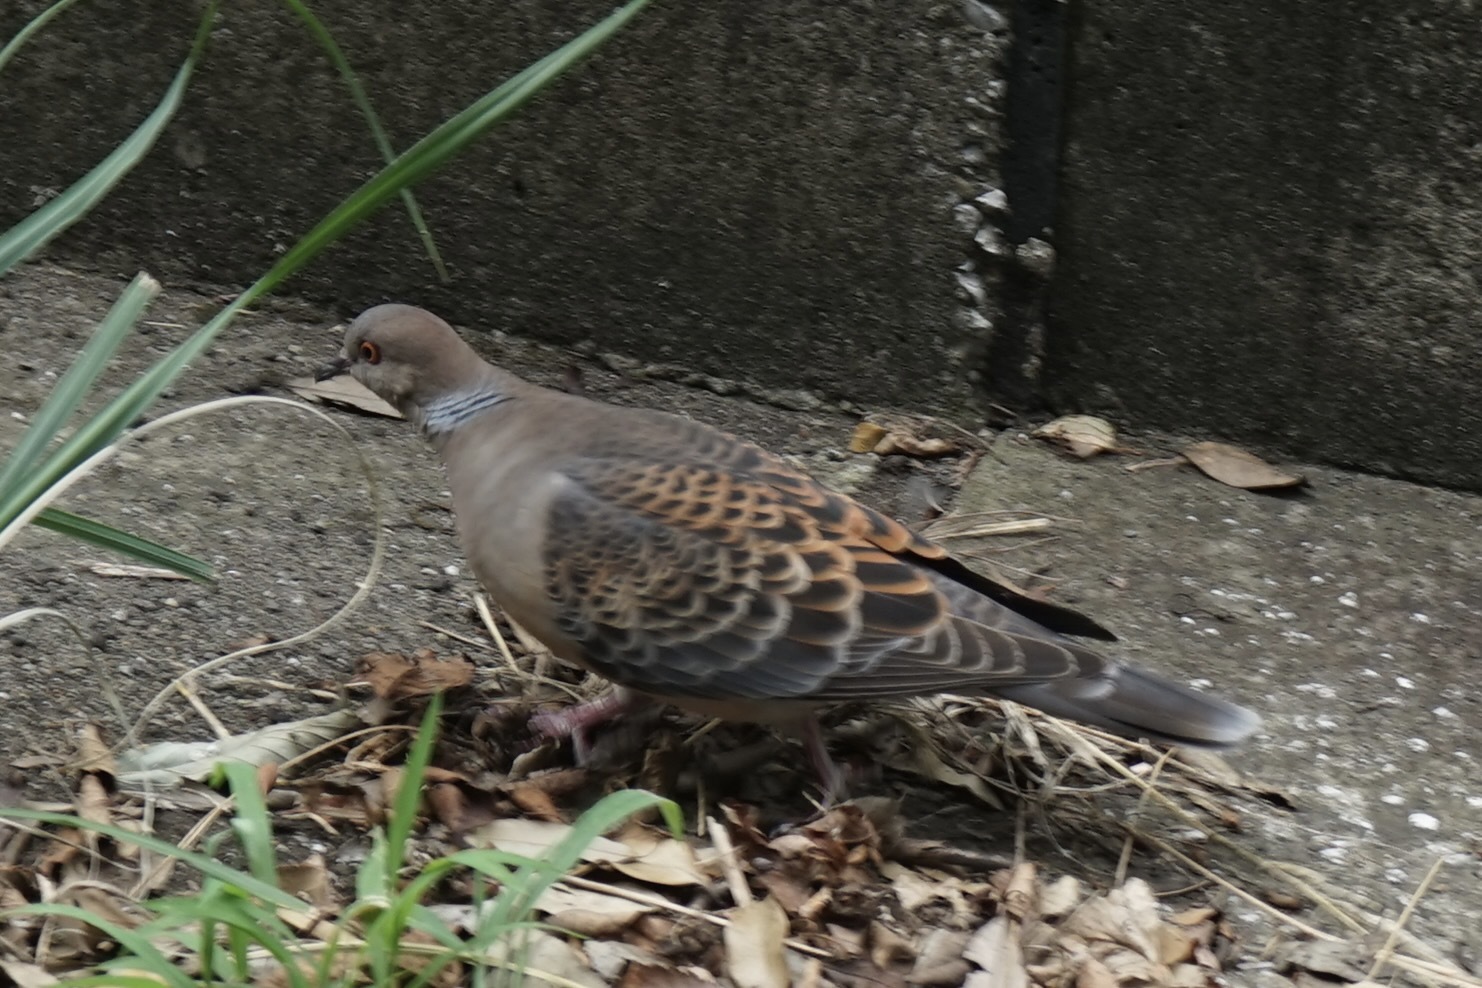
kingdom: Animalia
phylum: Chordata
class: Aves
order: Columbiformes
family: Columbidae
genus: Streptopelia
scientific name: Streptopelia orientalis
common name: Oriental turtle dove
